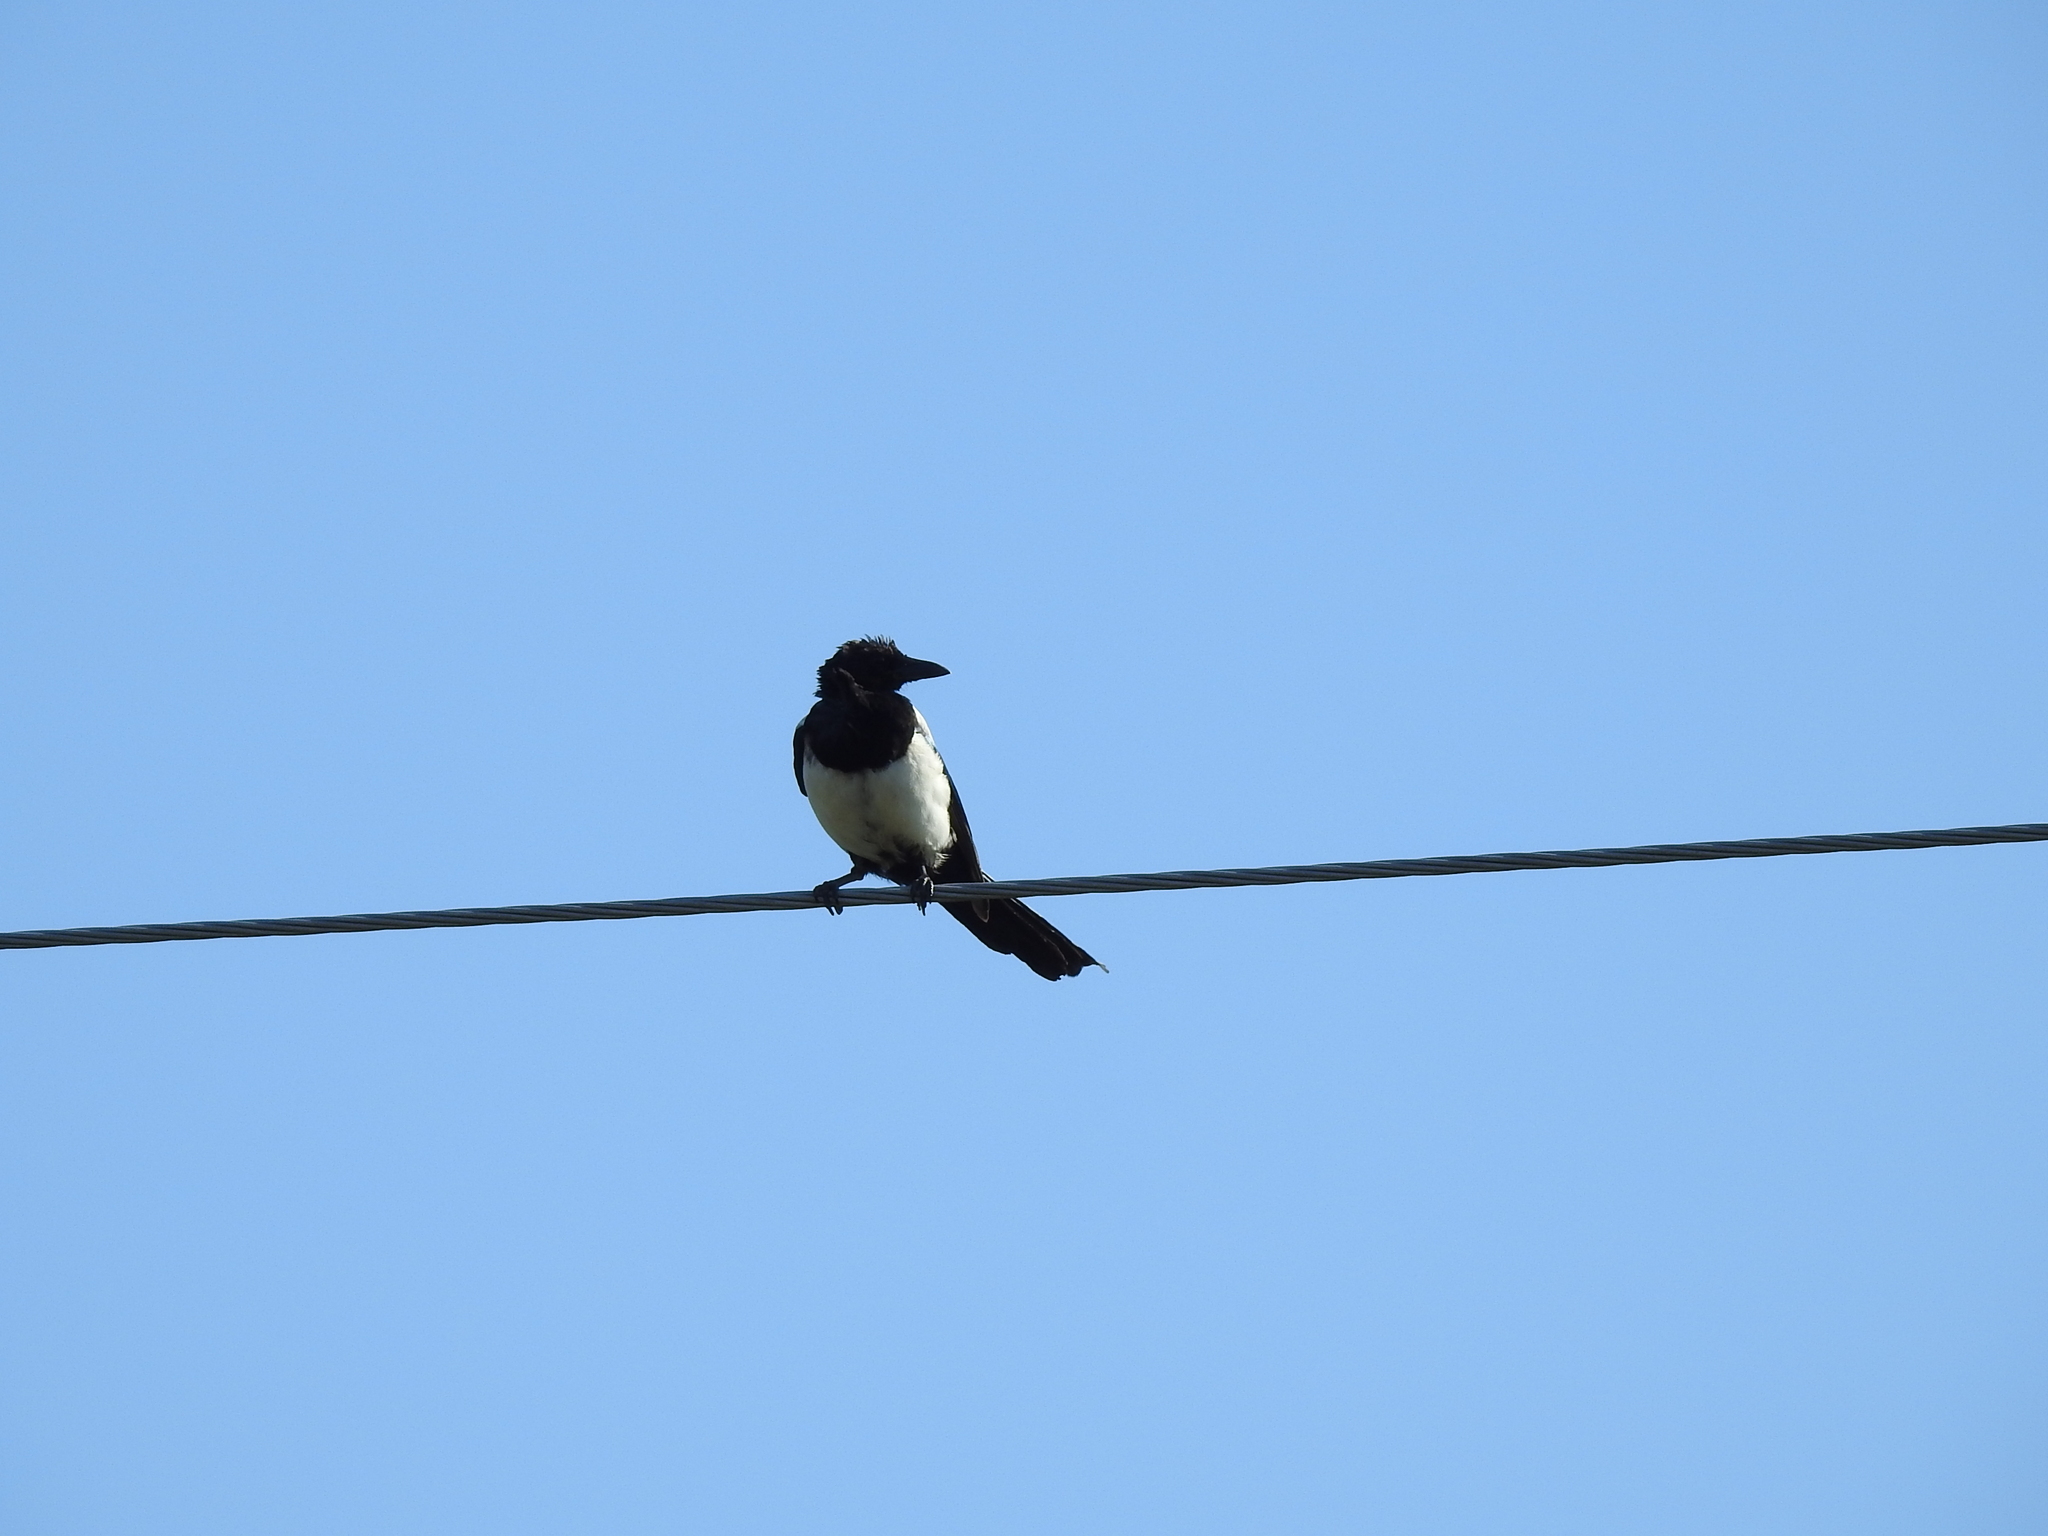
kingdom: Animalia
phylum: Chordata
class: Aves
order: Passeriformes
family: Corvidae
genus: Pica
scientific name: Pica pica
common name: Eurasian magpie
